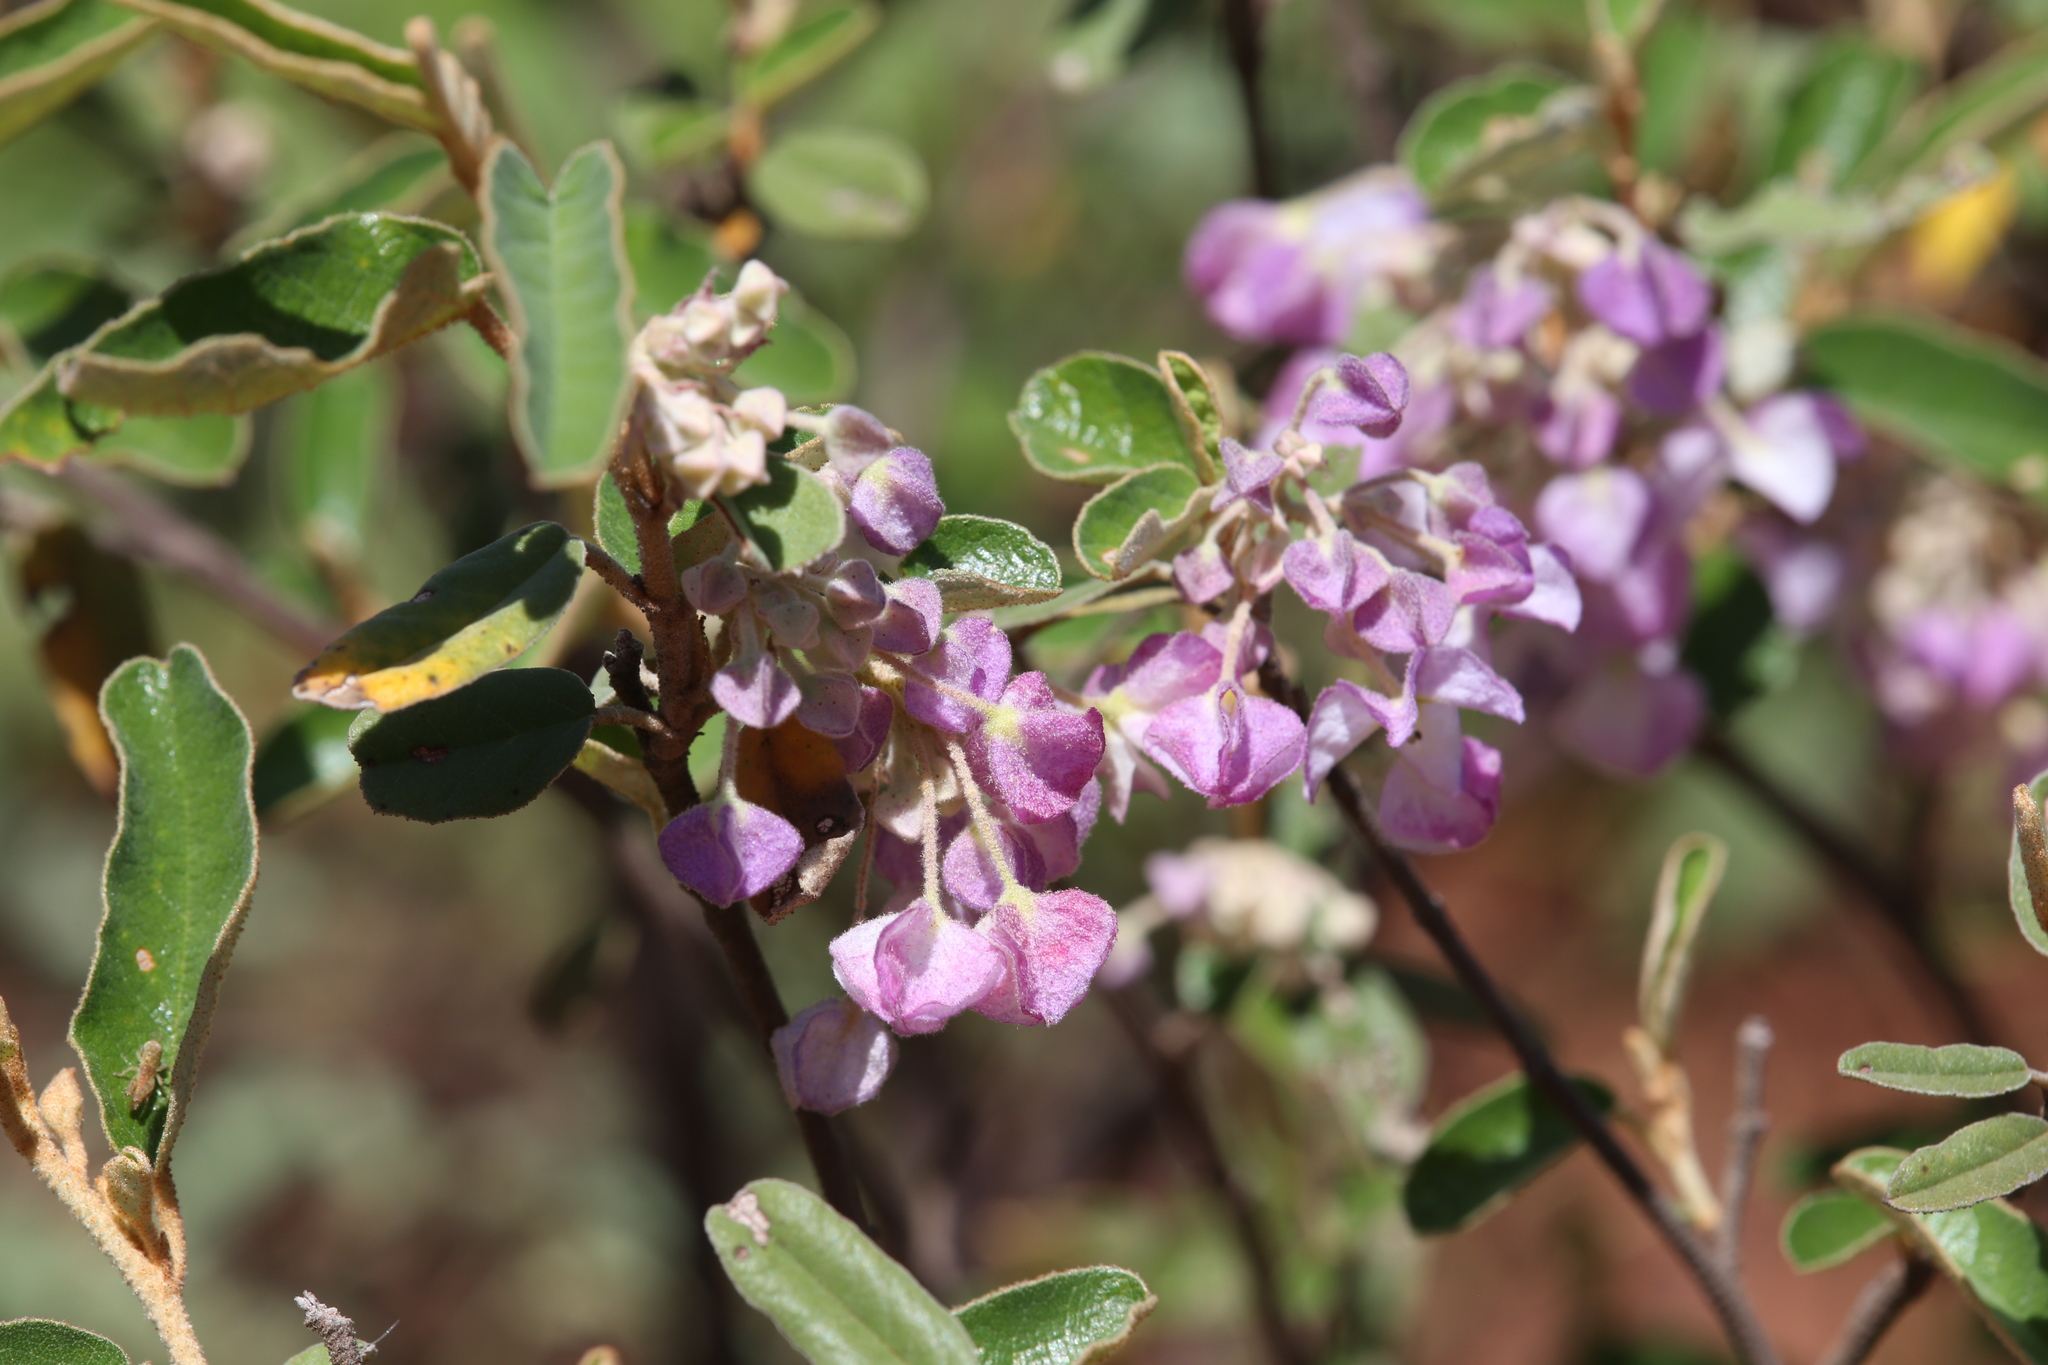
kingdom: Plantae
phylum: Tracheophyta
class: Magnoliopsida
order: Malvales
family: Malvaceae
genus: Seringia
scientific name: Seringia nephrosperma
